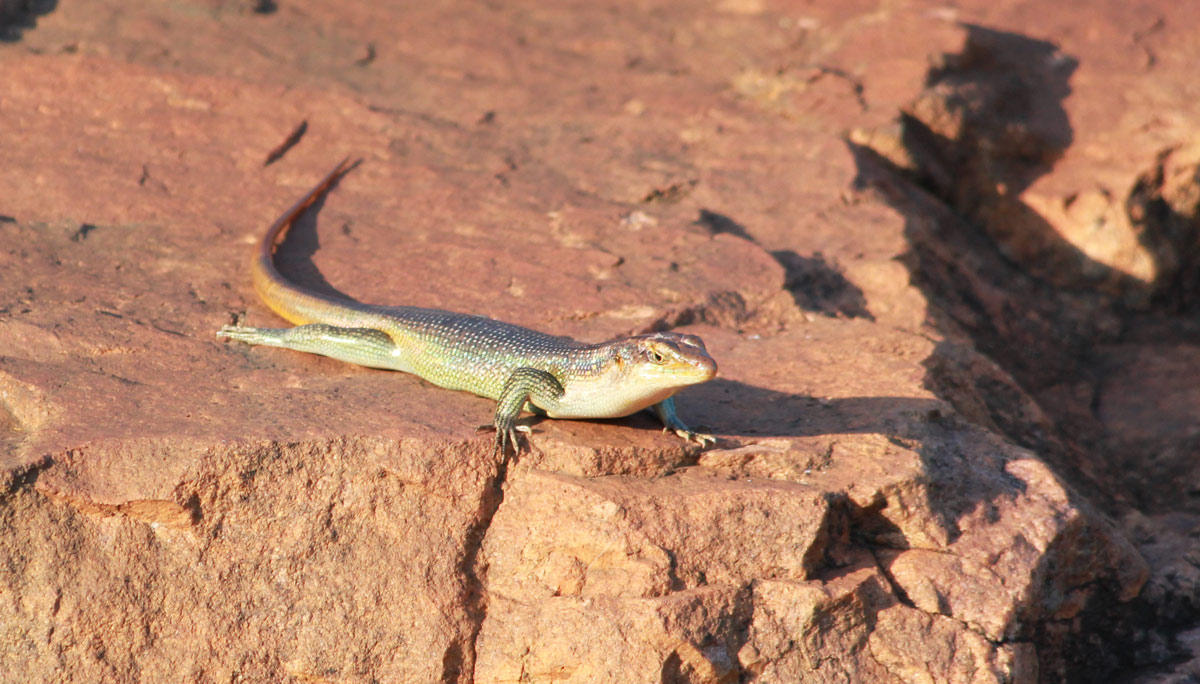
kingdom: Animalia
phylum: Chordata
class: Squamata
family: Scincidae
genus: Trachylepis
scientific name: Trachylepis margaritifera
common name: Rainbow skink
